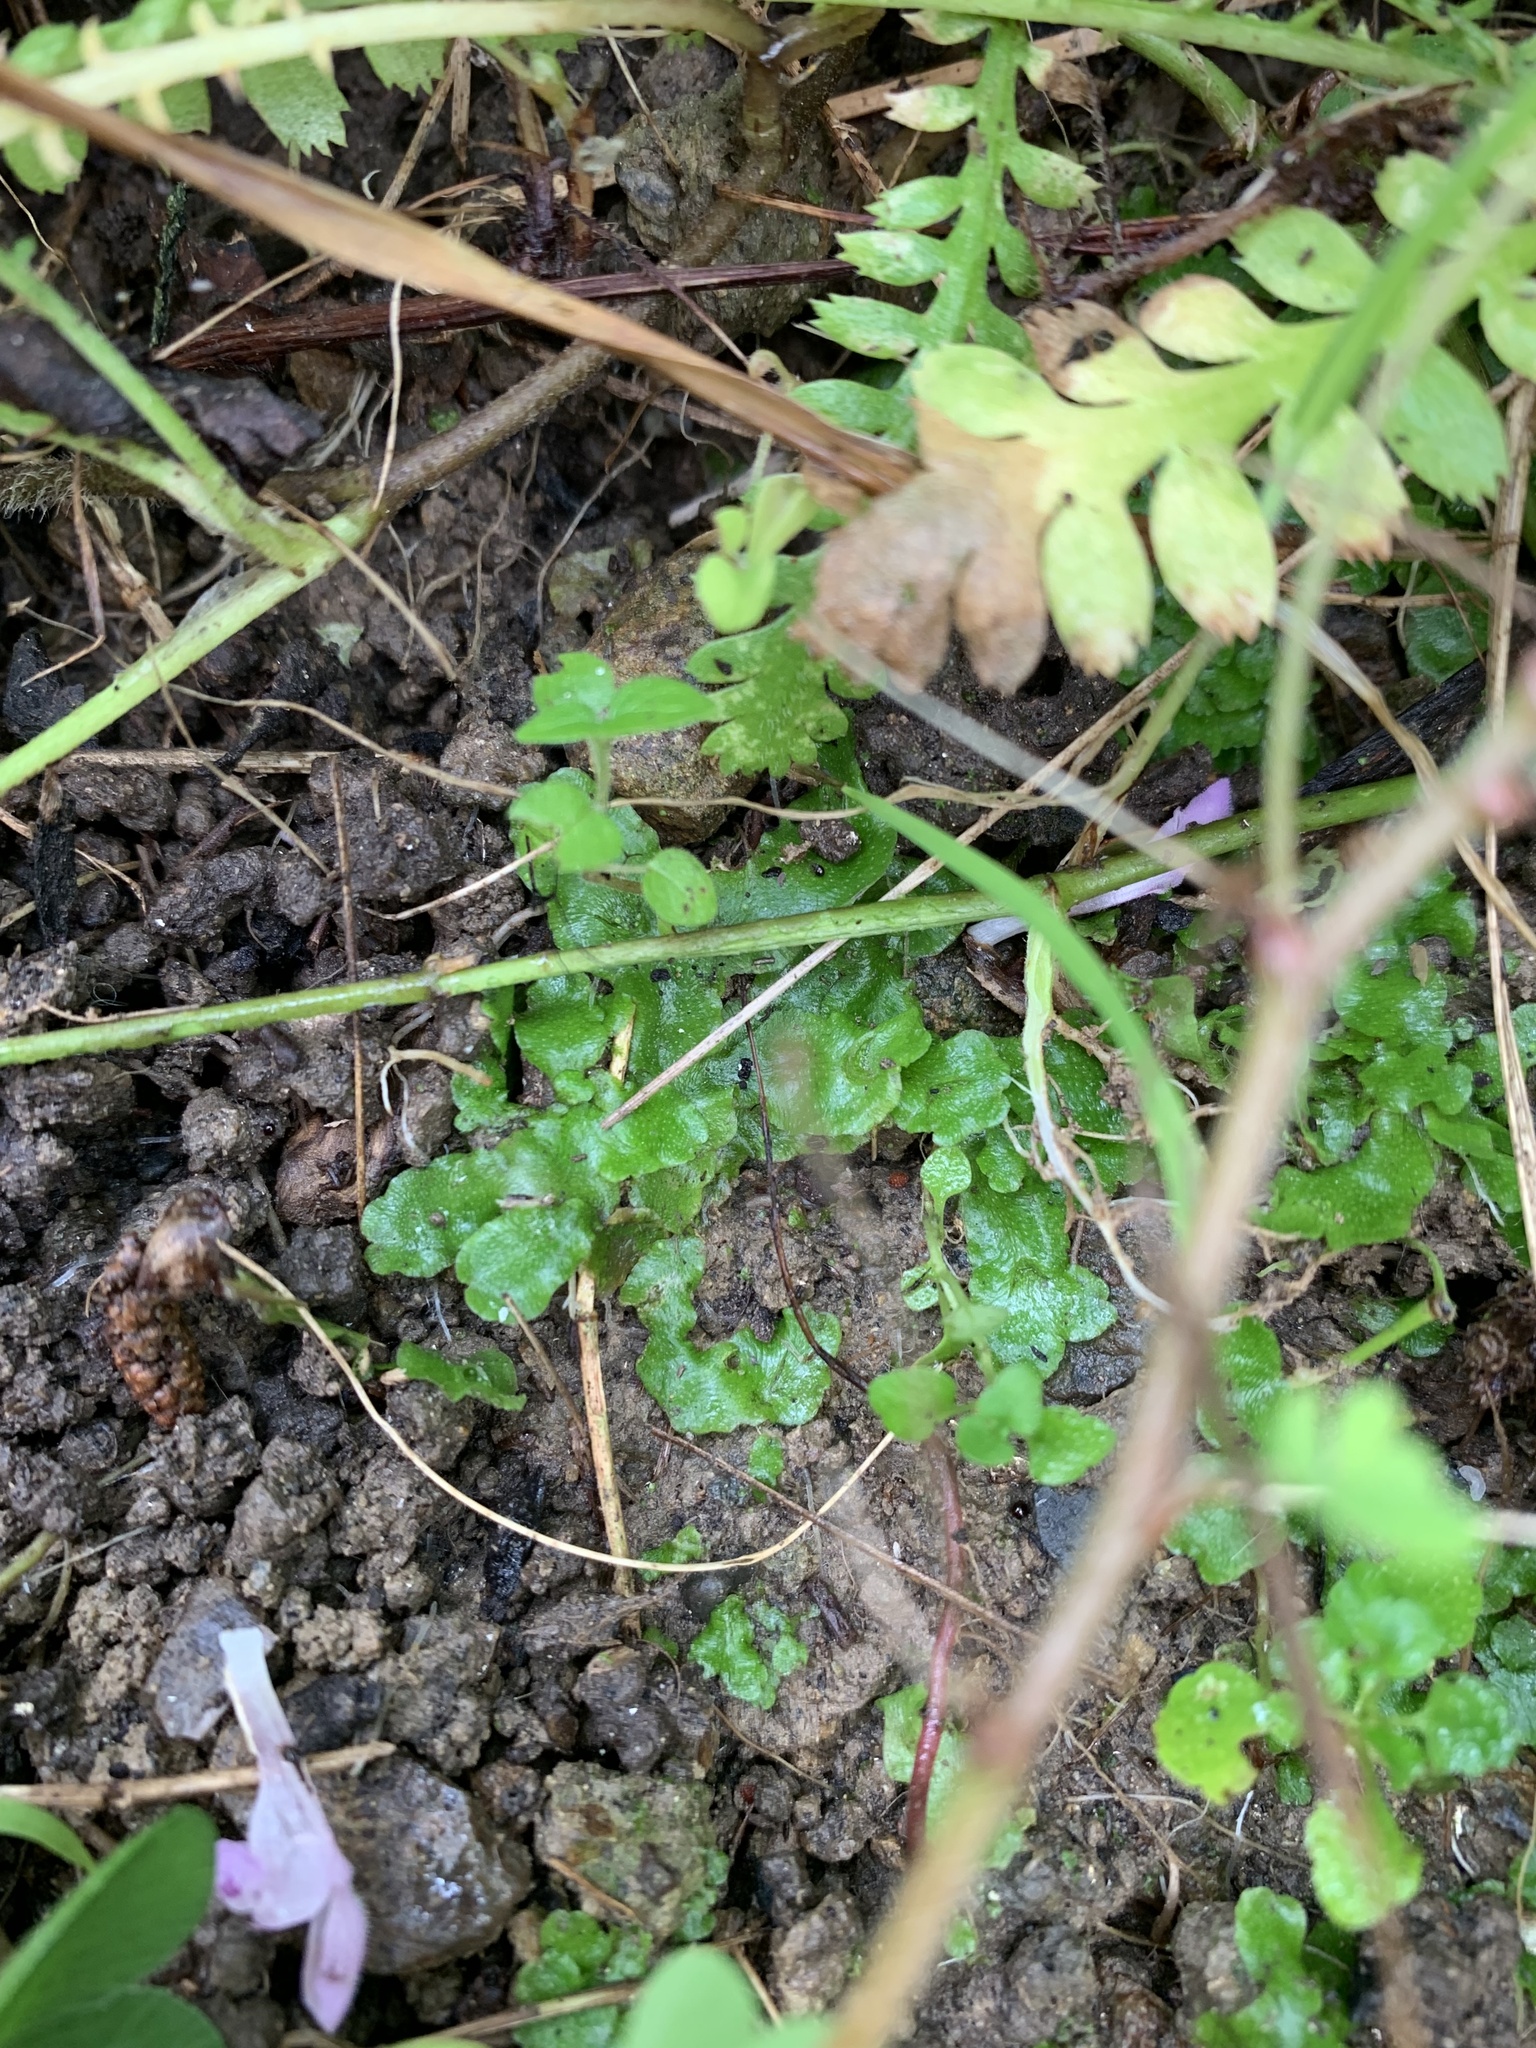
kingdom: Plantae
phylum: Marchantiophyta
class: Marchantiopsida
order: Lunulariales
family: Lunulariaceae
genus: Lunularia
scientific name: Lunularia cruciata
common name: Crescent-cup liverwort
